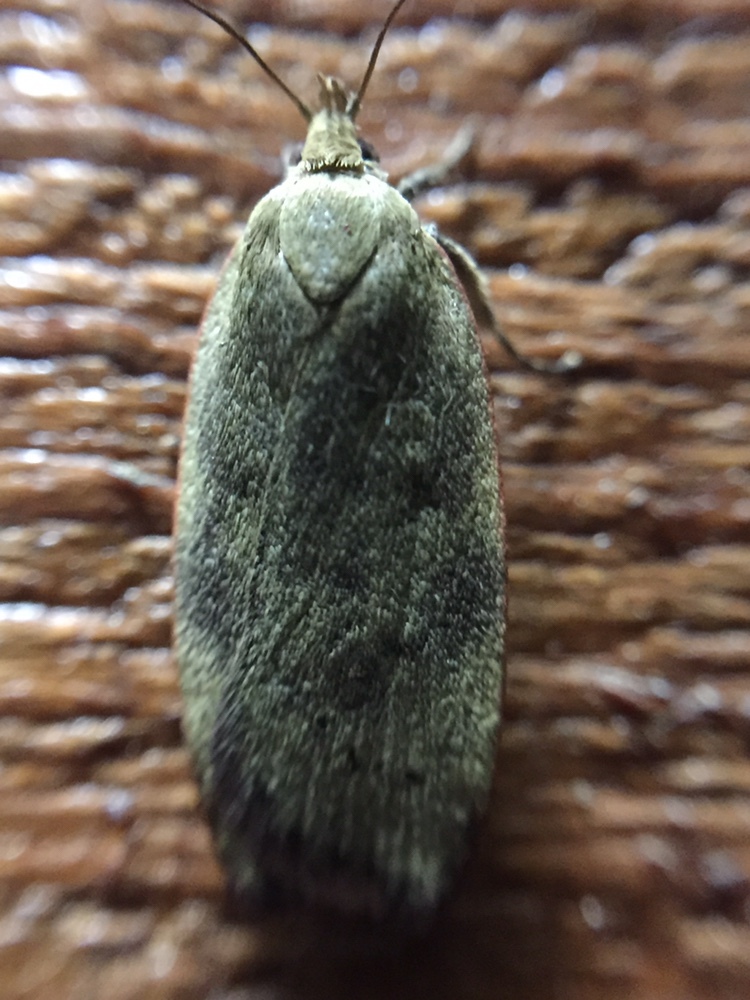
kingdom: Animalia
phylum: Arthropoda
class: Insecta
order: Lepidoptera
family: Depressariidae
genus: Phaeosaces
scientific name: Phaeosaces coarctatella
